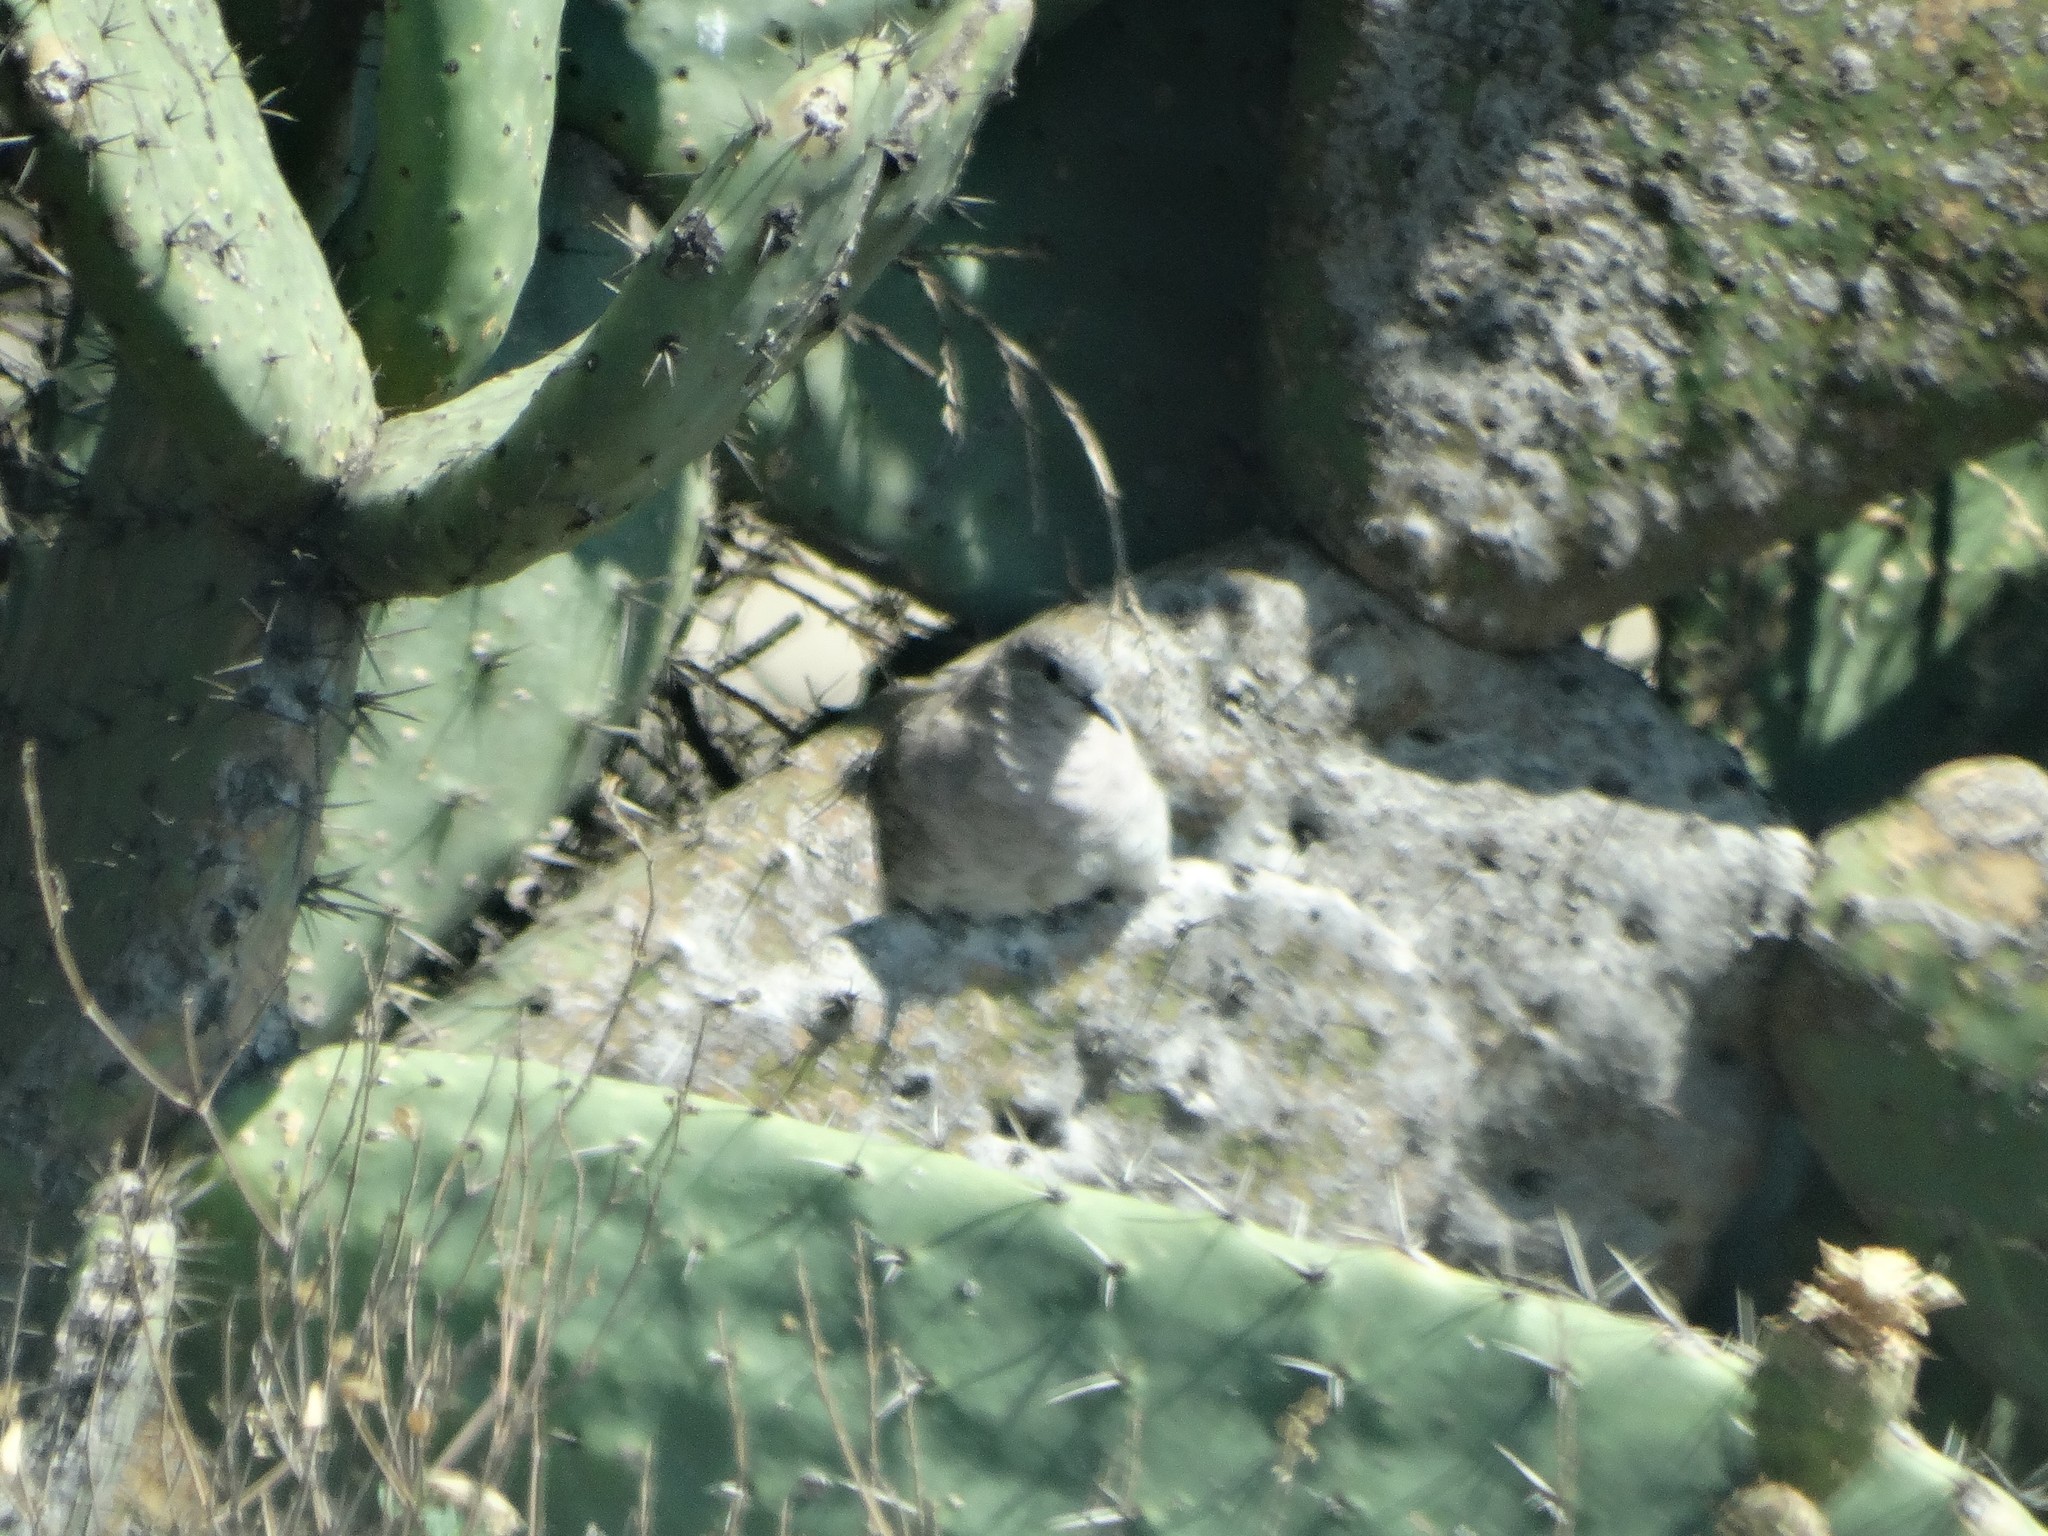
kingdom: Animalia
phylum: Chordata
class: Aves
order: Columbiformes
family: Columbidae
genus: Columbina
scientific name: Columbina inca
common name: Inca dove
